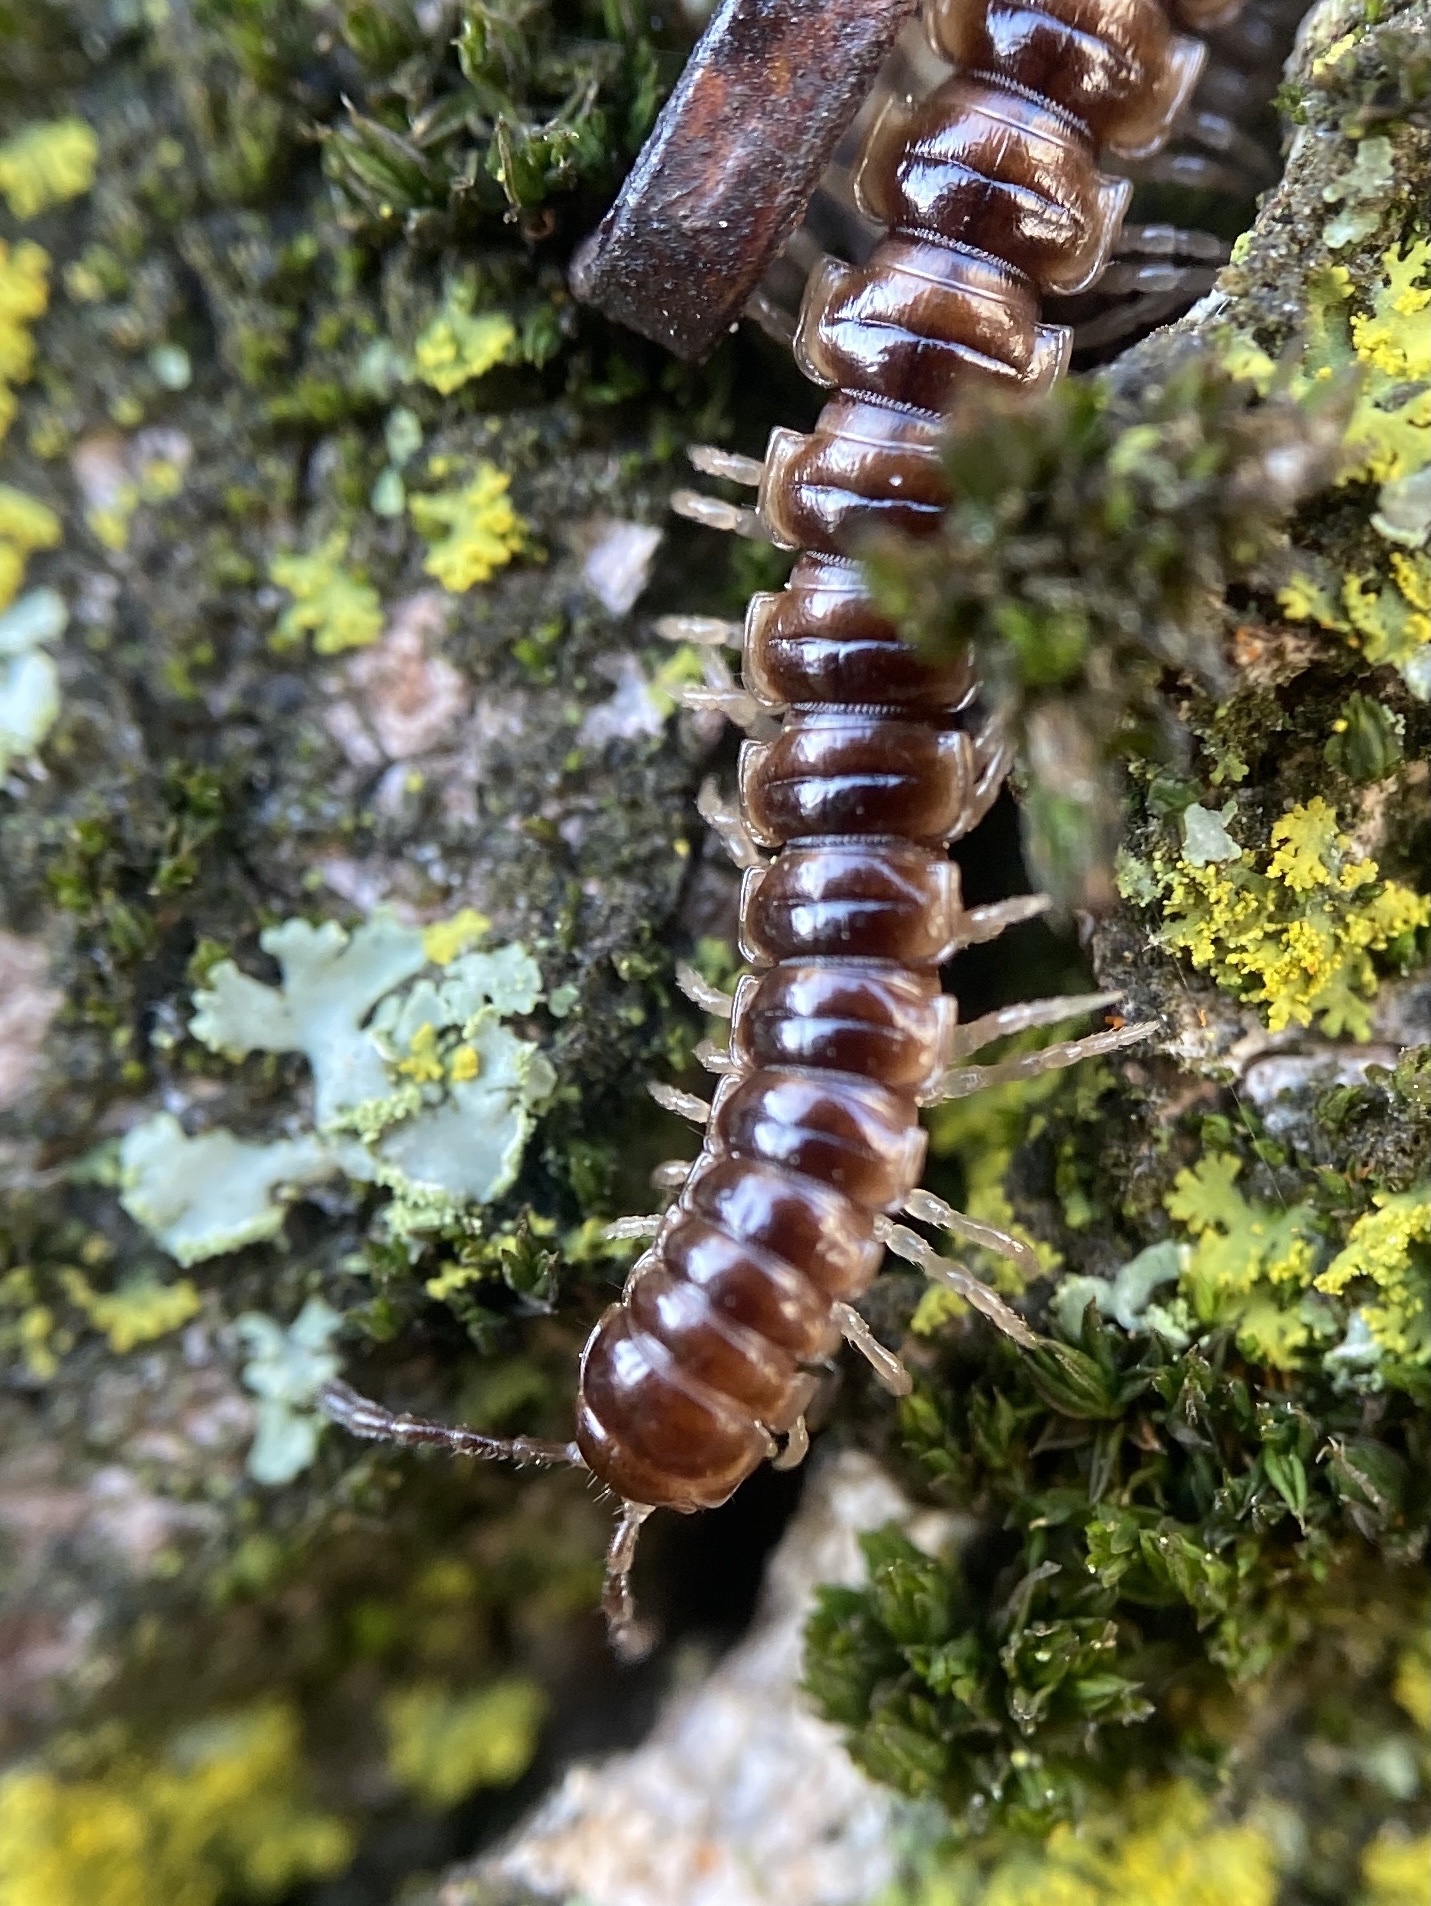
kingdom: Animalia
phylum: Arthropoda
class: Diplopoda
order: Polydesmida
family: Paradoxosomatidae
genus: Oxidus
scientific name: Oxidus gracilis
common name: Greenhouse millipede
